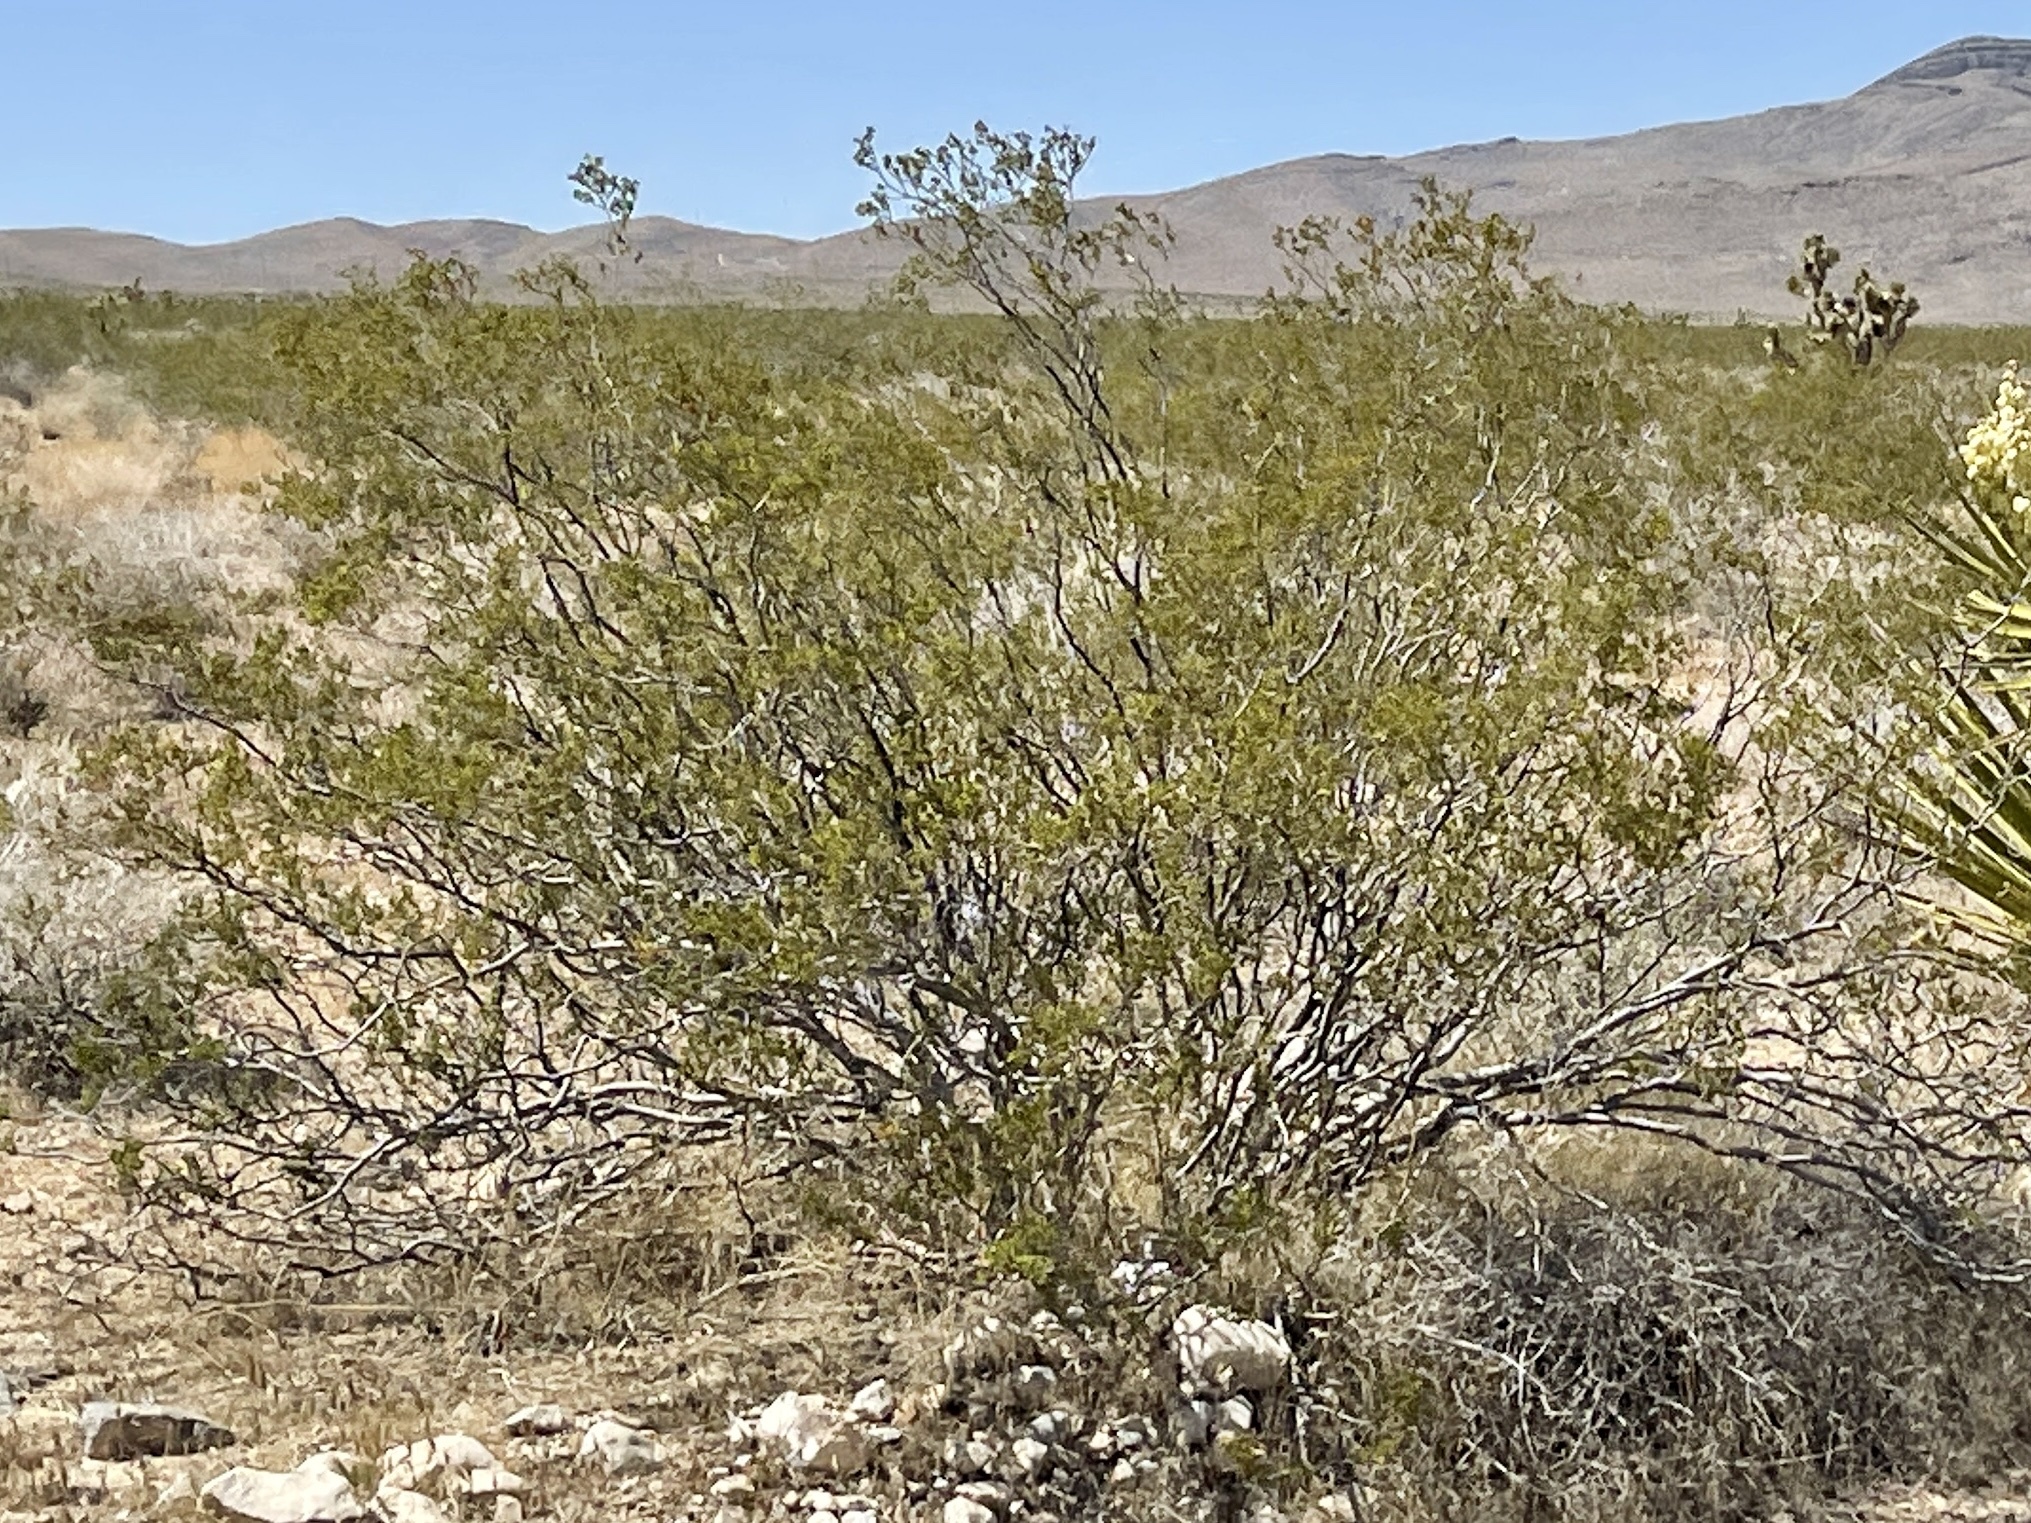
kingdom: Plantae
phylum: Tracheophyta
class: Magnoliopsida
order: Zygophyllales
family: Zygophyllaceae
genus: Larrea
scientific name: Larrea tridentata
